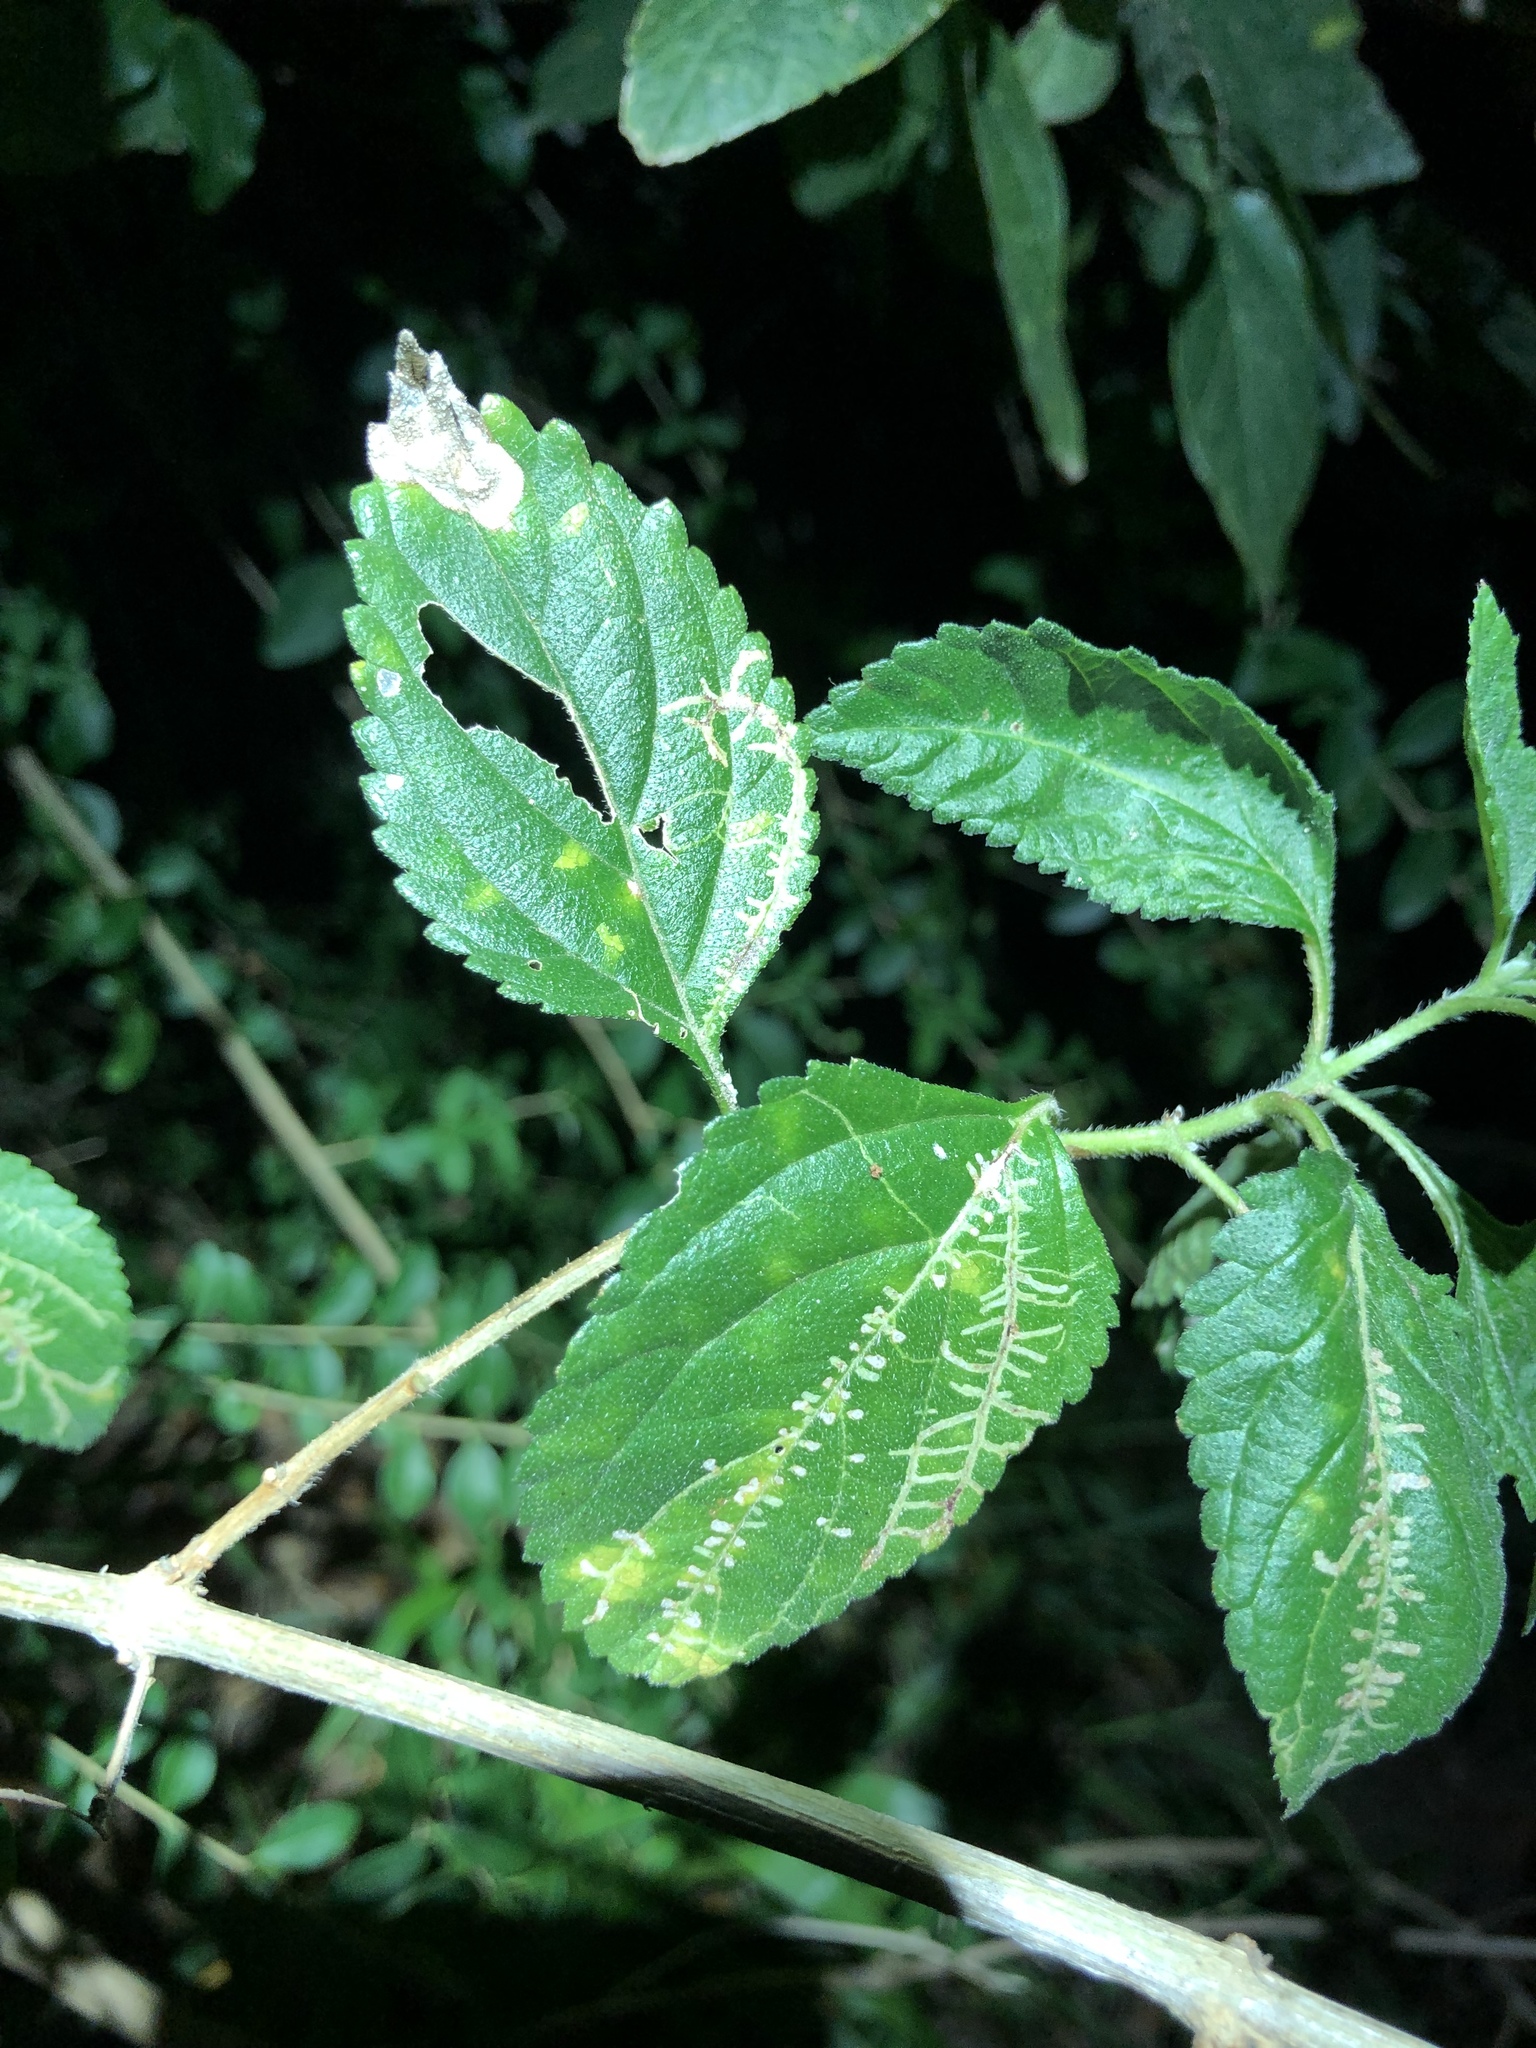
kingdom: Animalia
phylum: Arthropoda
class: Insecta
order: Diptera
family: Agromyzidae
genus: Ophiomyia
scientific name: Ophiomyia camarae
